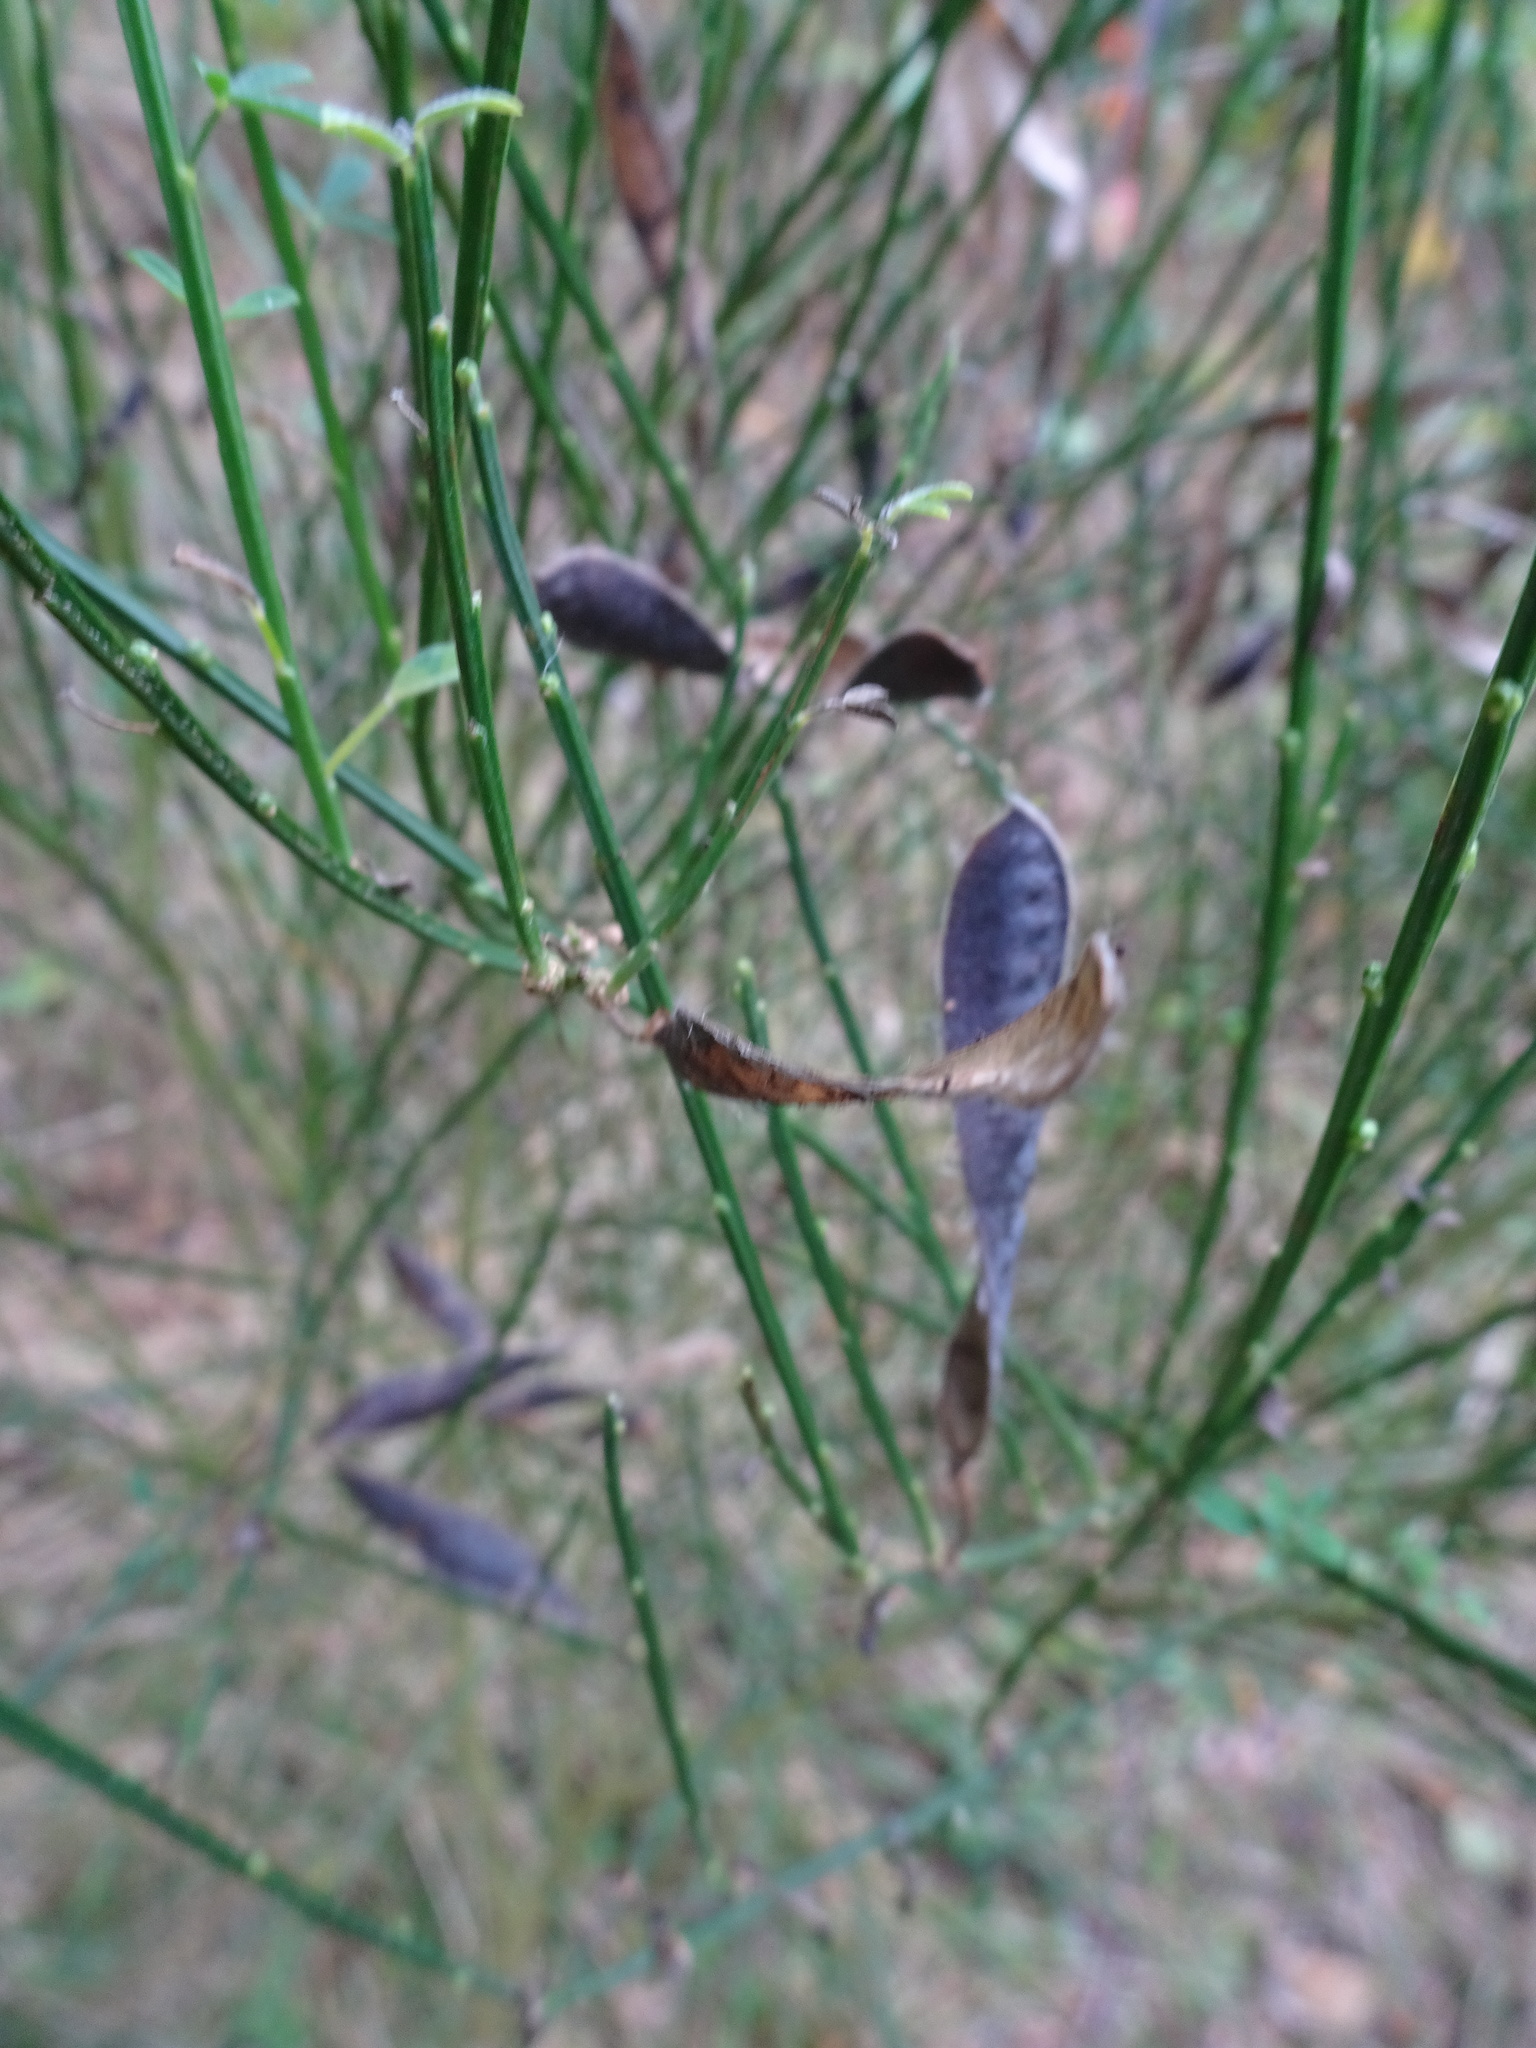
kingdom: Plantae
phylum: Tracheophyta
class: Magnoliopsida
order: Fabales
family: Fabaceae
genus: Cytisus
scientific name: Cytisus scoparius
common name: Scotch broom
